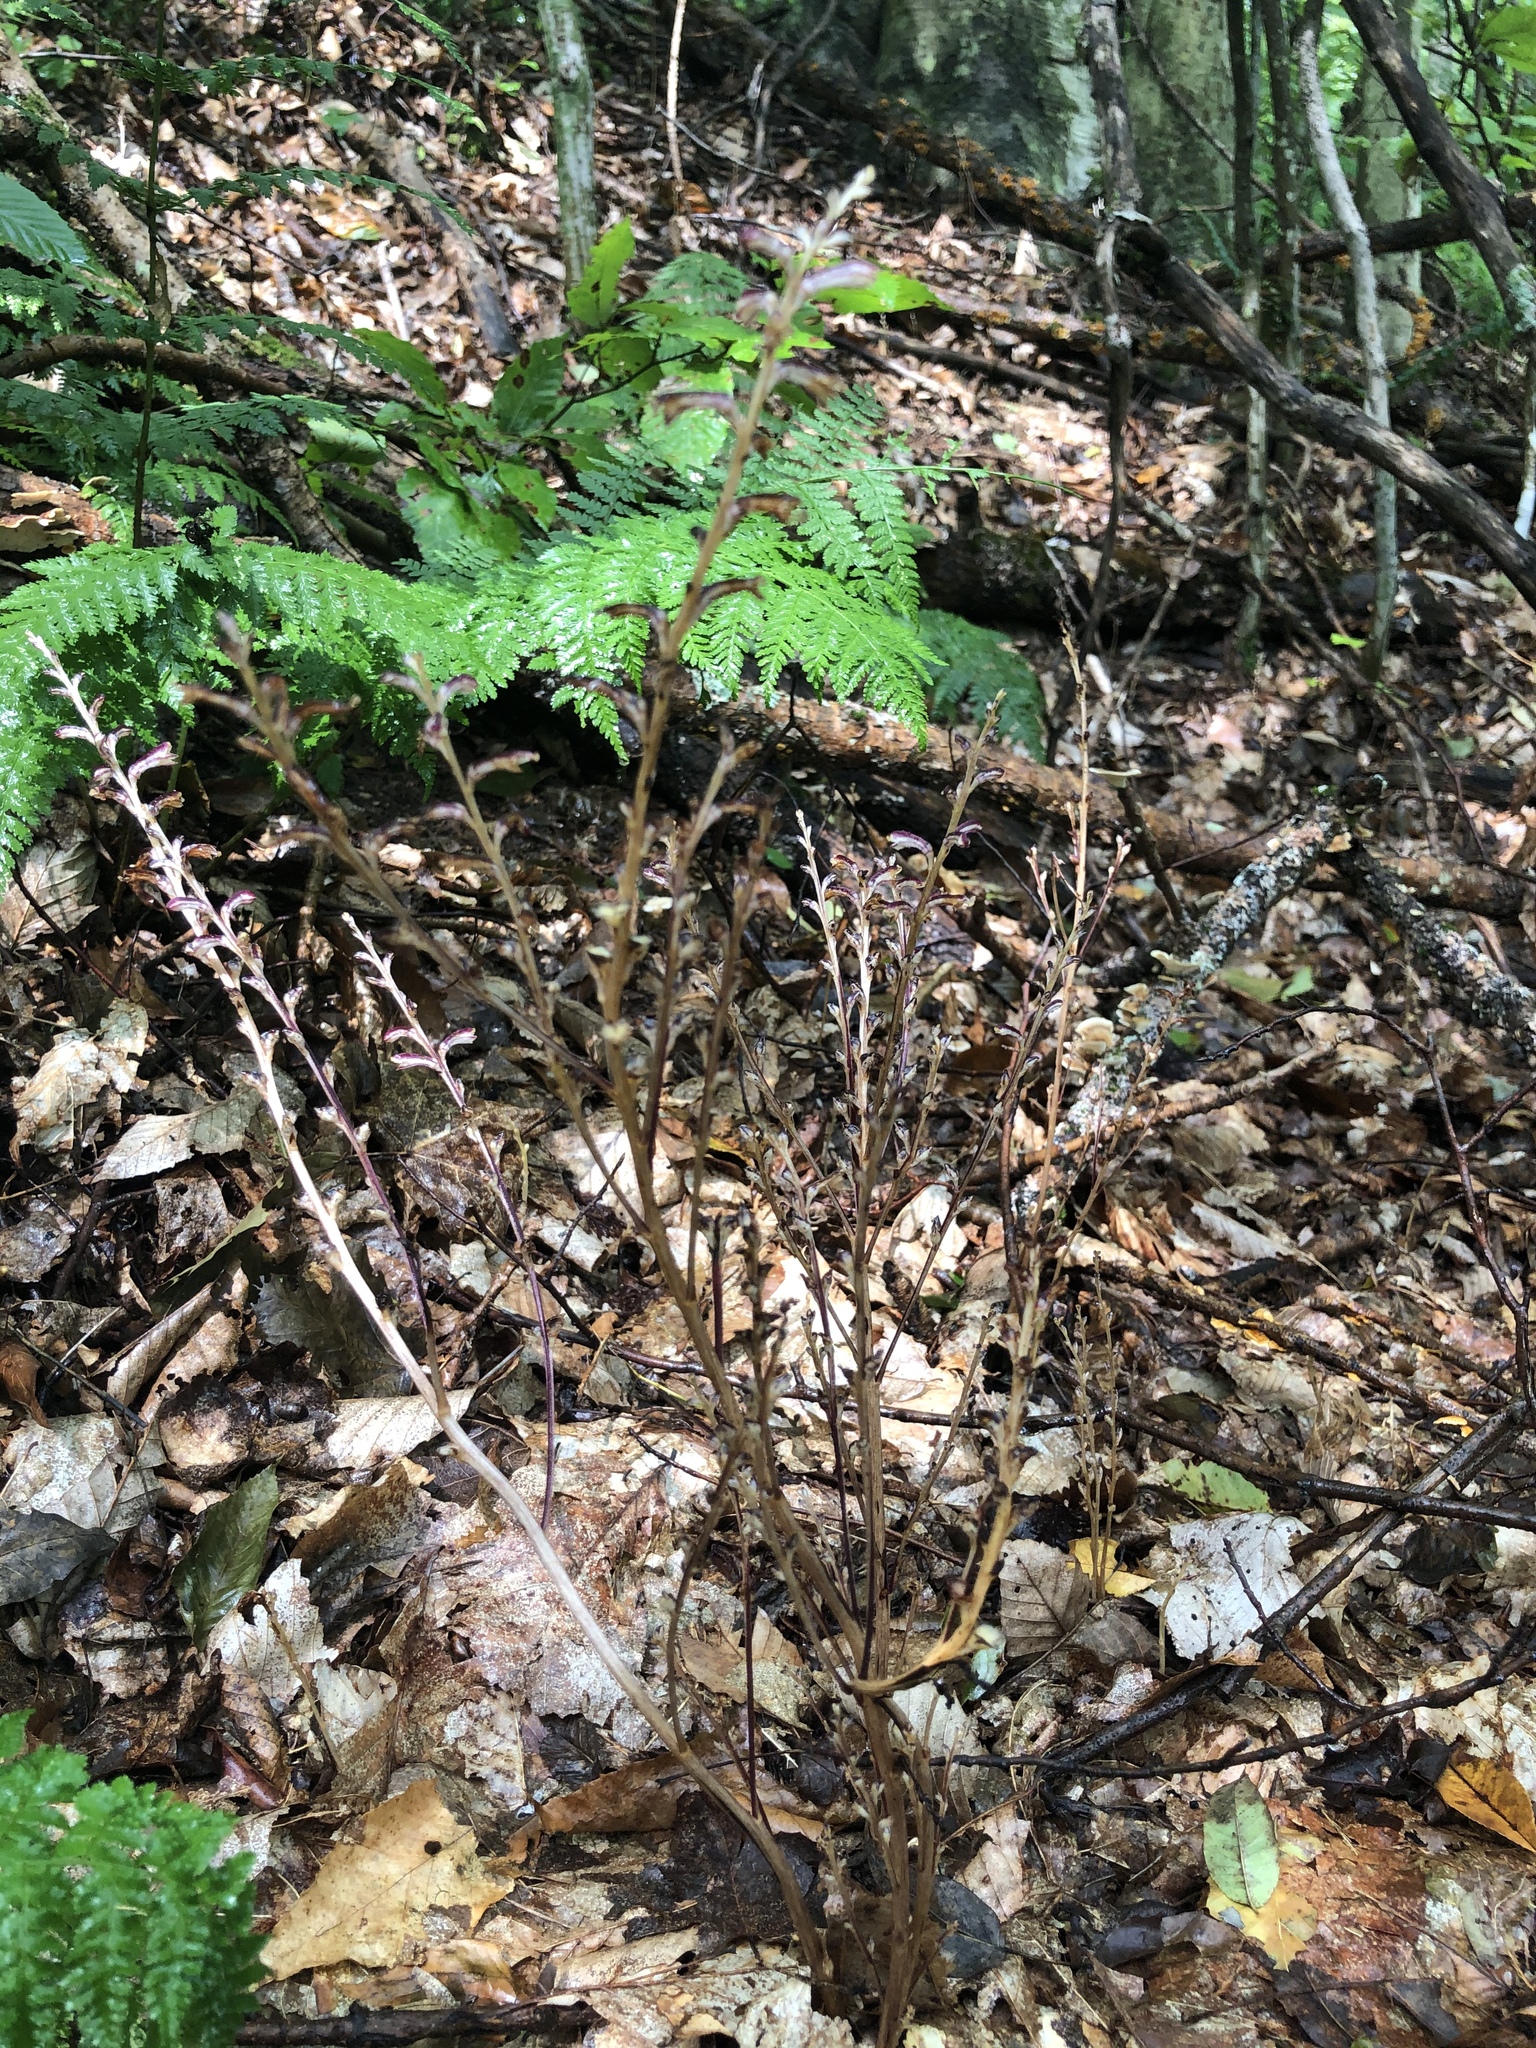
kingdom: Plantae
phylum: Tracheophyta
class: Magnoliopsida
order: Lamiales
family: Orobanchaceae
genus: Epifagus
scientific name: Epifagus virginiana
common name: Beechdrops
